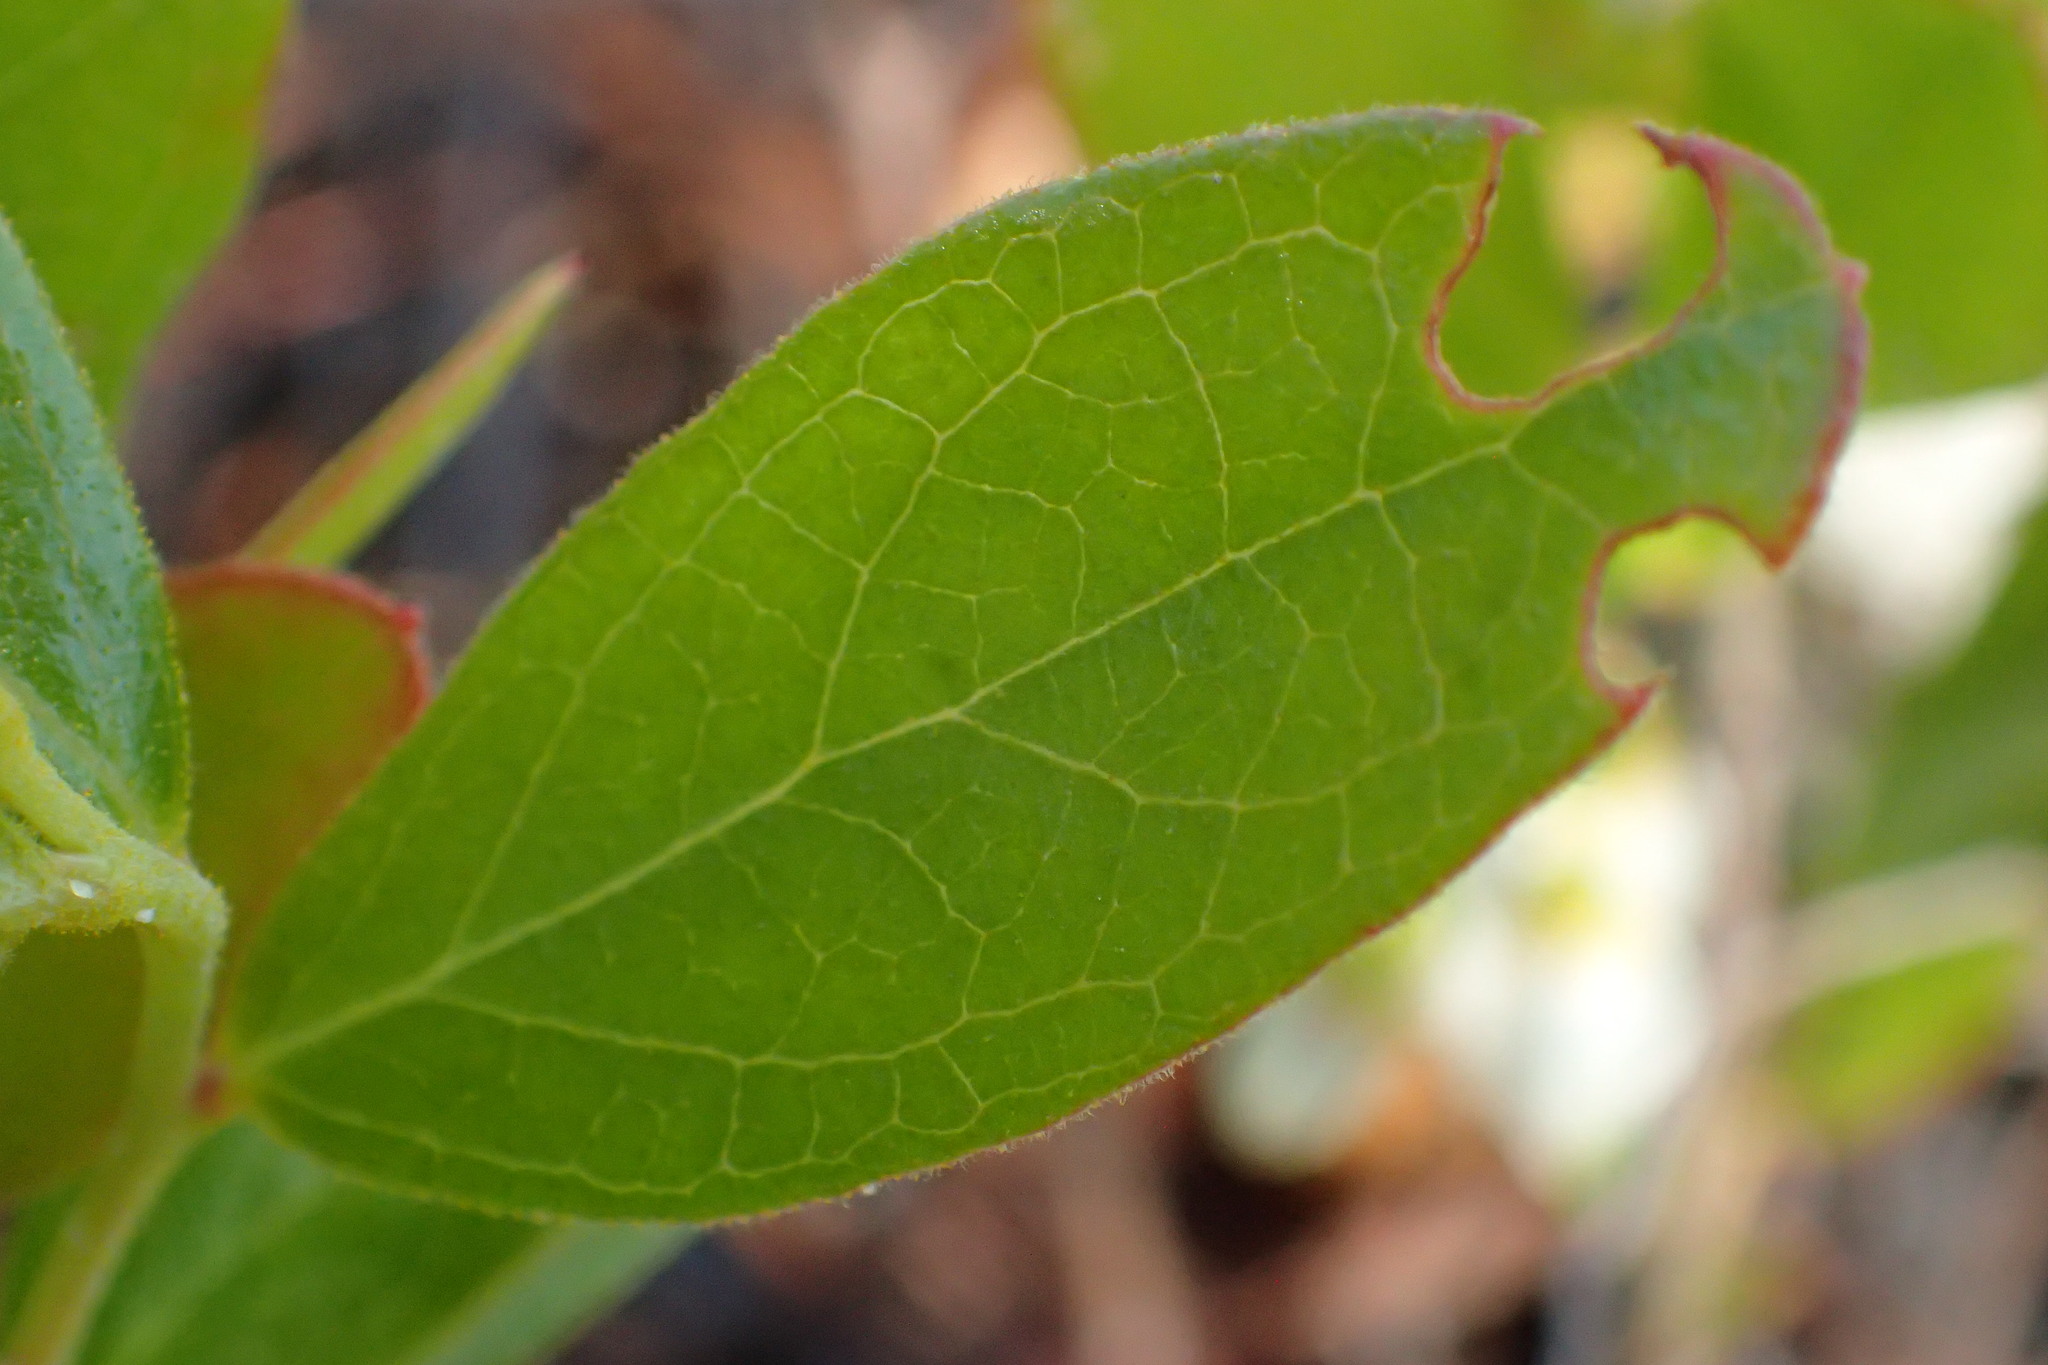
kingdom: Plantae
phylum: Tracheophyta
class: Magnoliopsida
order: Ericales
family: Ericaceae
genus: Gaylussacia
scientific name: Gaylussacia dumosa
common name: Dwarf huckleberry
